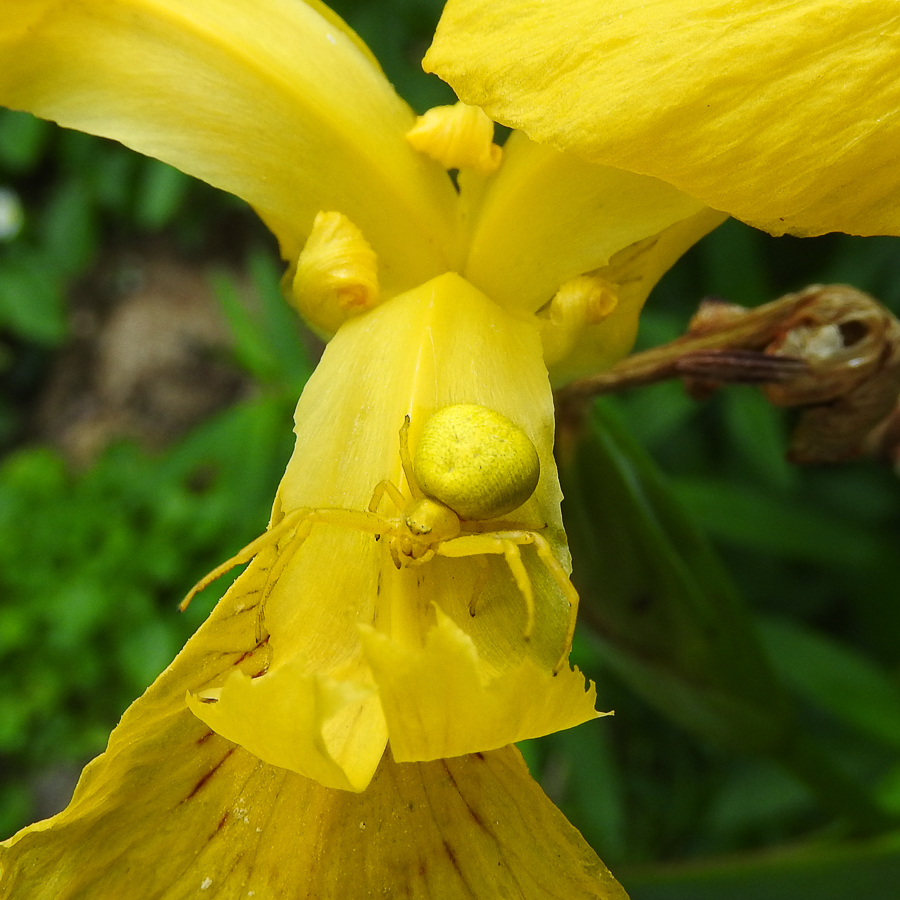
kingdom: Animalia
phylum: Arthropoda
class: Arachnida
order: Araneae
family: Thomisidae
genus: Misumena
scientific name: Misumena vatia
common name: Goldenrod crab spider
